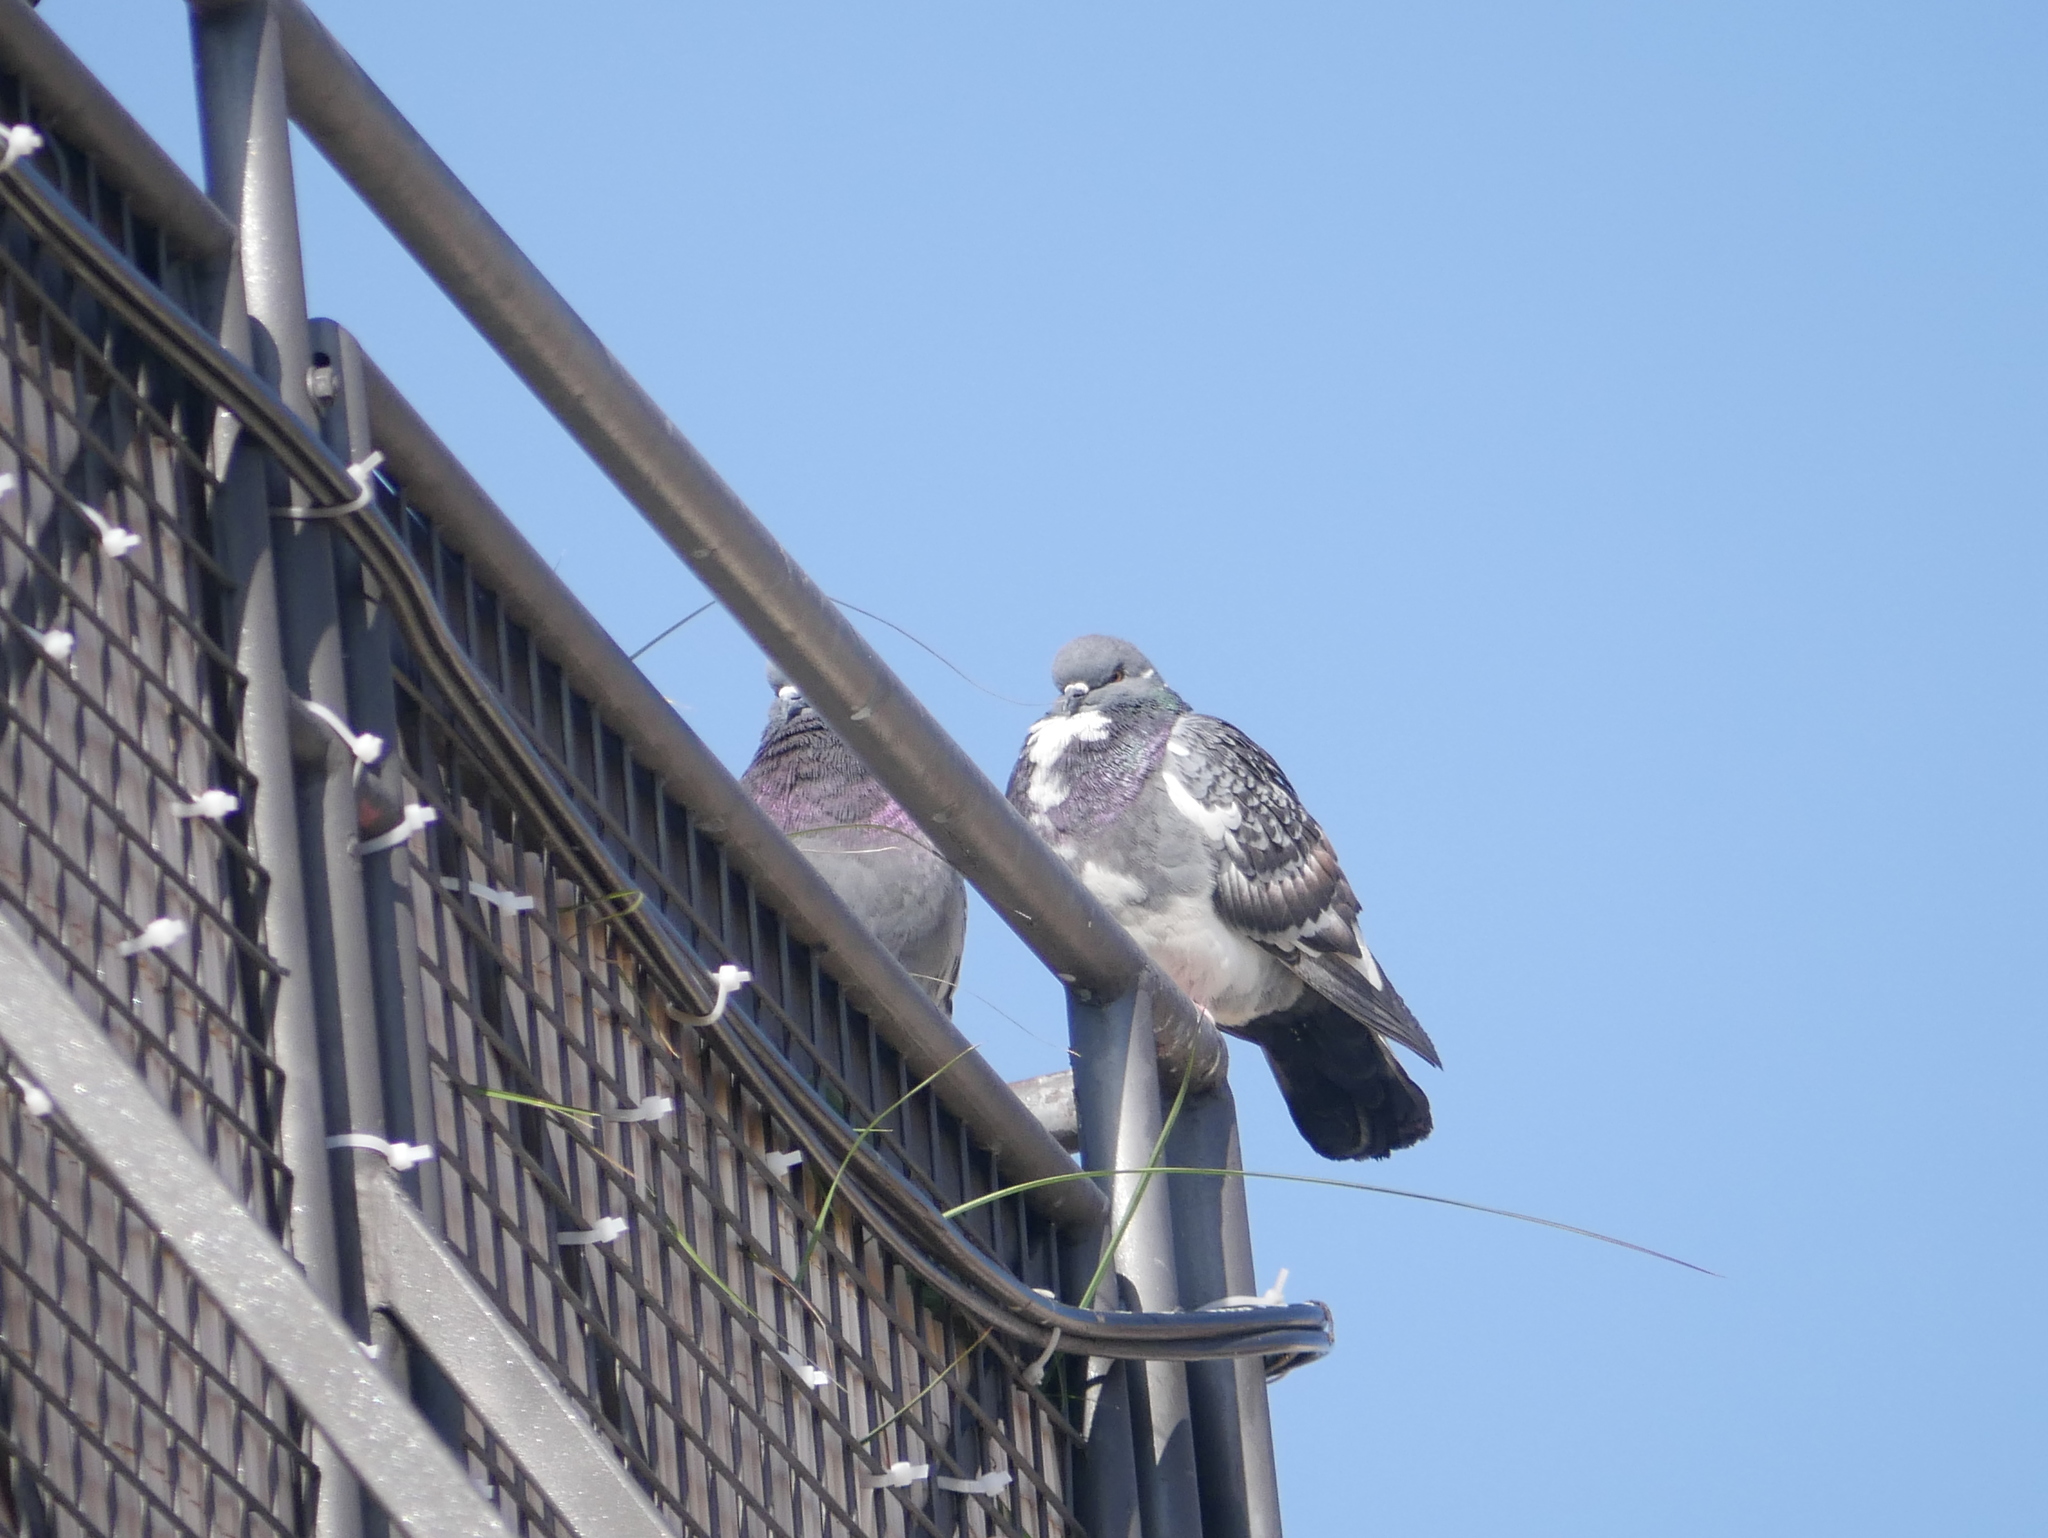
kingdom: Animalia
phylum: Chordata
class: Aves
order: Columbiformes
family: Columbidae
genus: Columba
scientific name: Columba livia
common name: Rock pigeon
